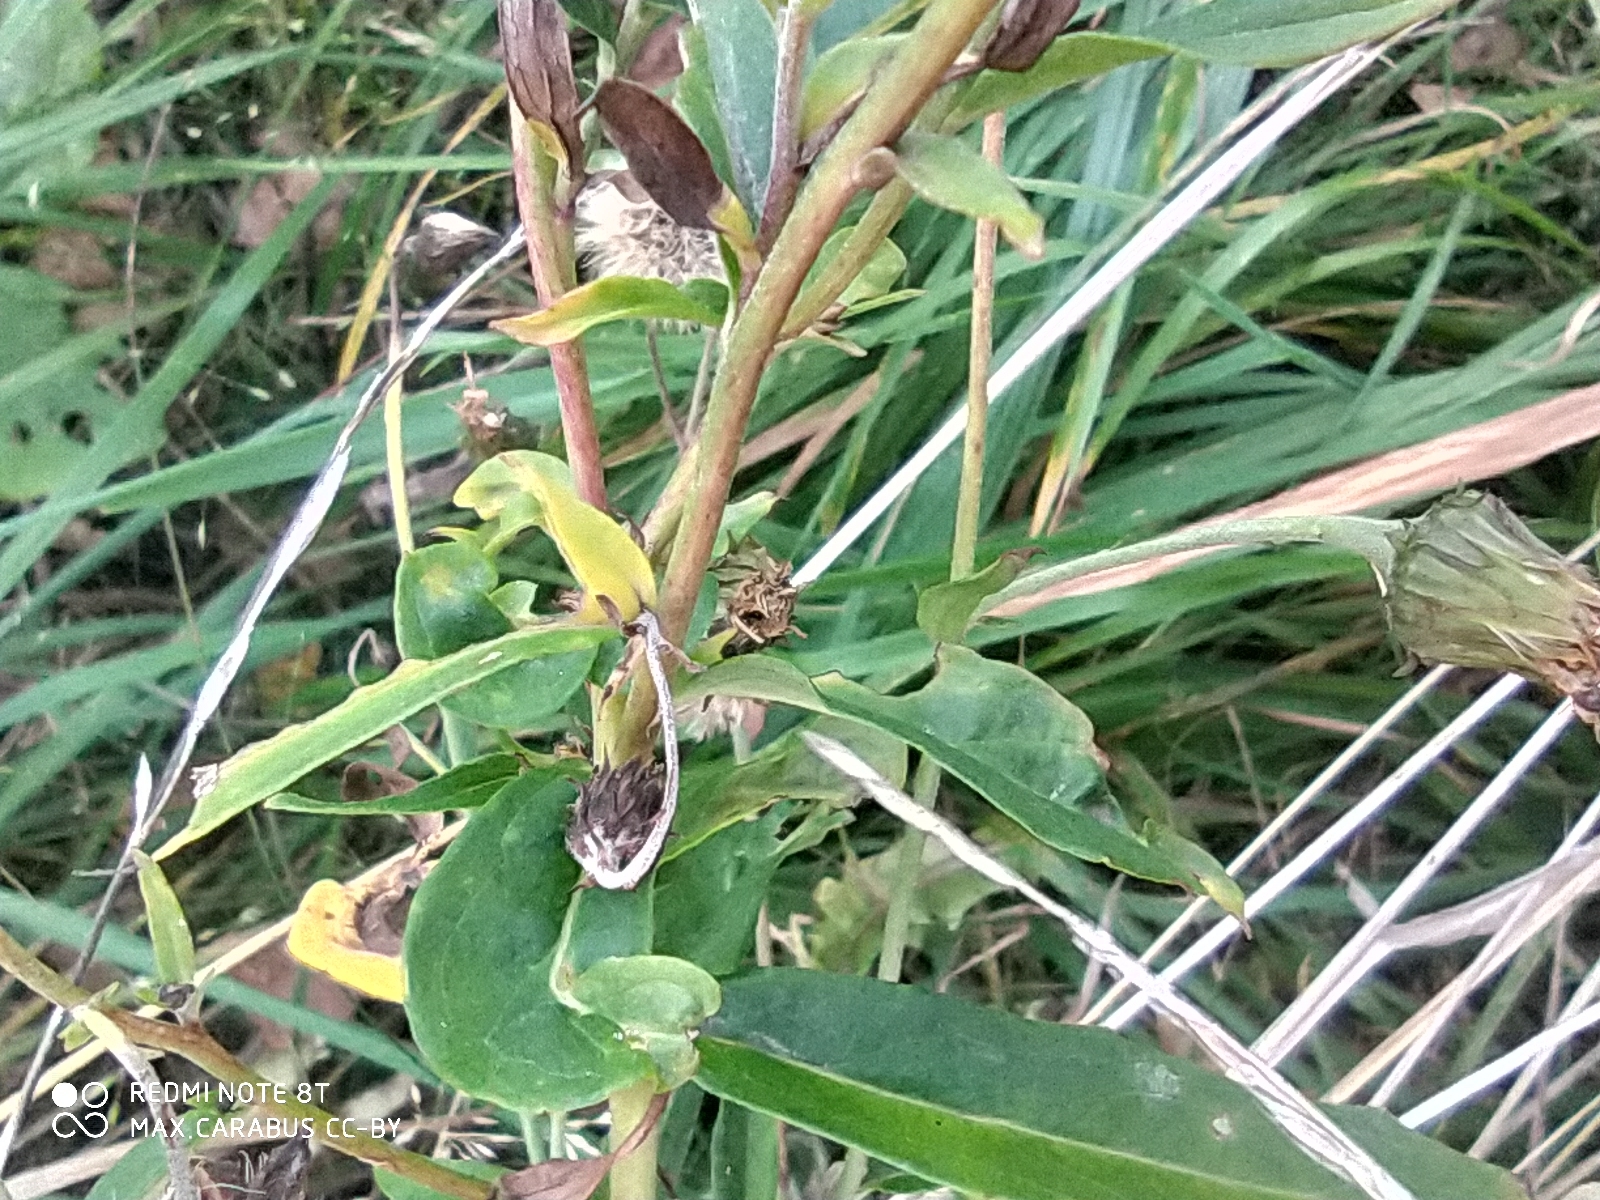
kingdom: Plantae
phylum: Tracheophyta
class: Magnoliopsida
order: Asterales
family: Asteraceae
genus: Hieracium
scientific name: Hieracium umbellatum
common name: Northern hawkweed
